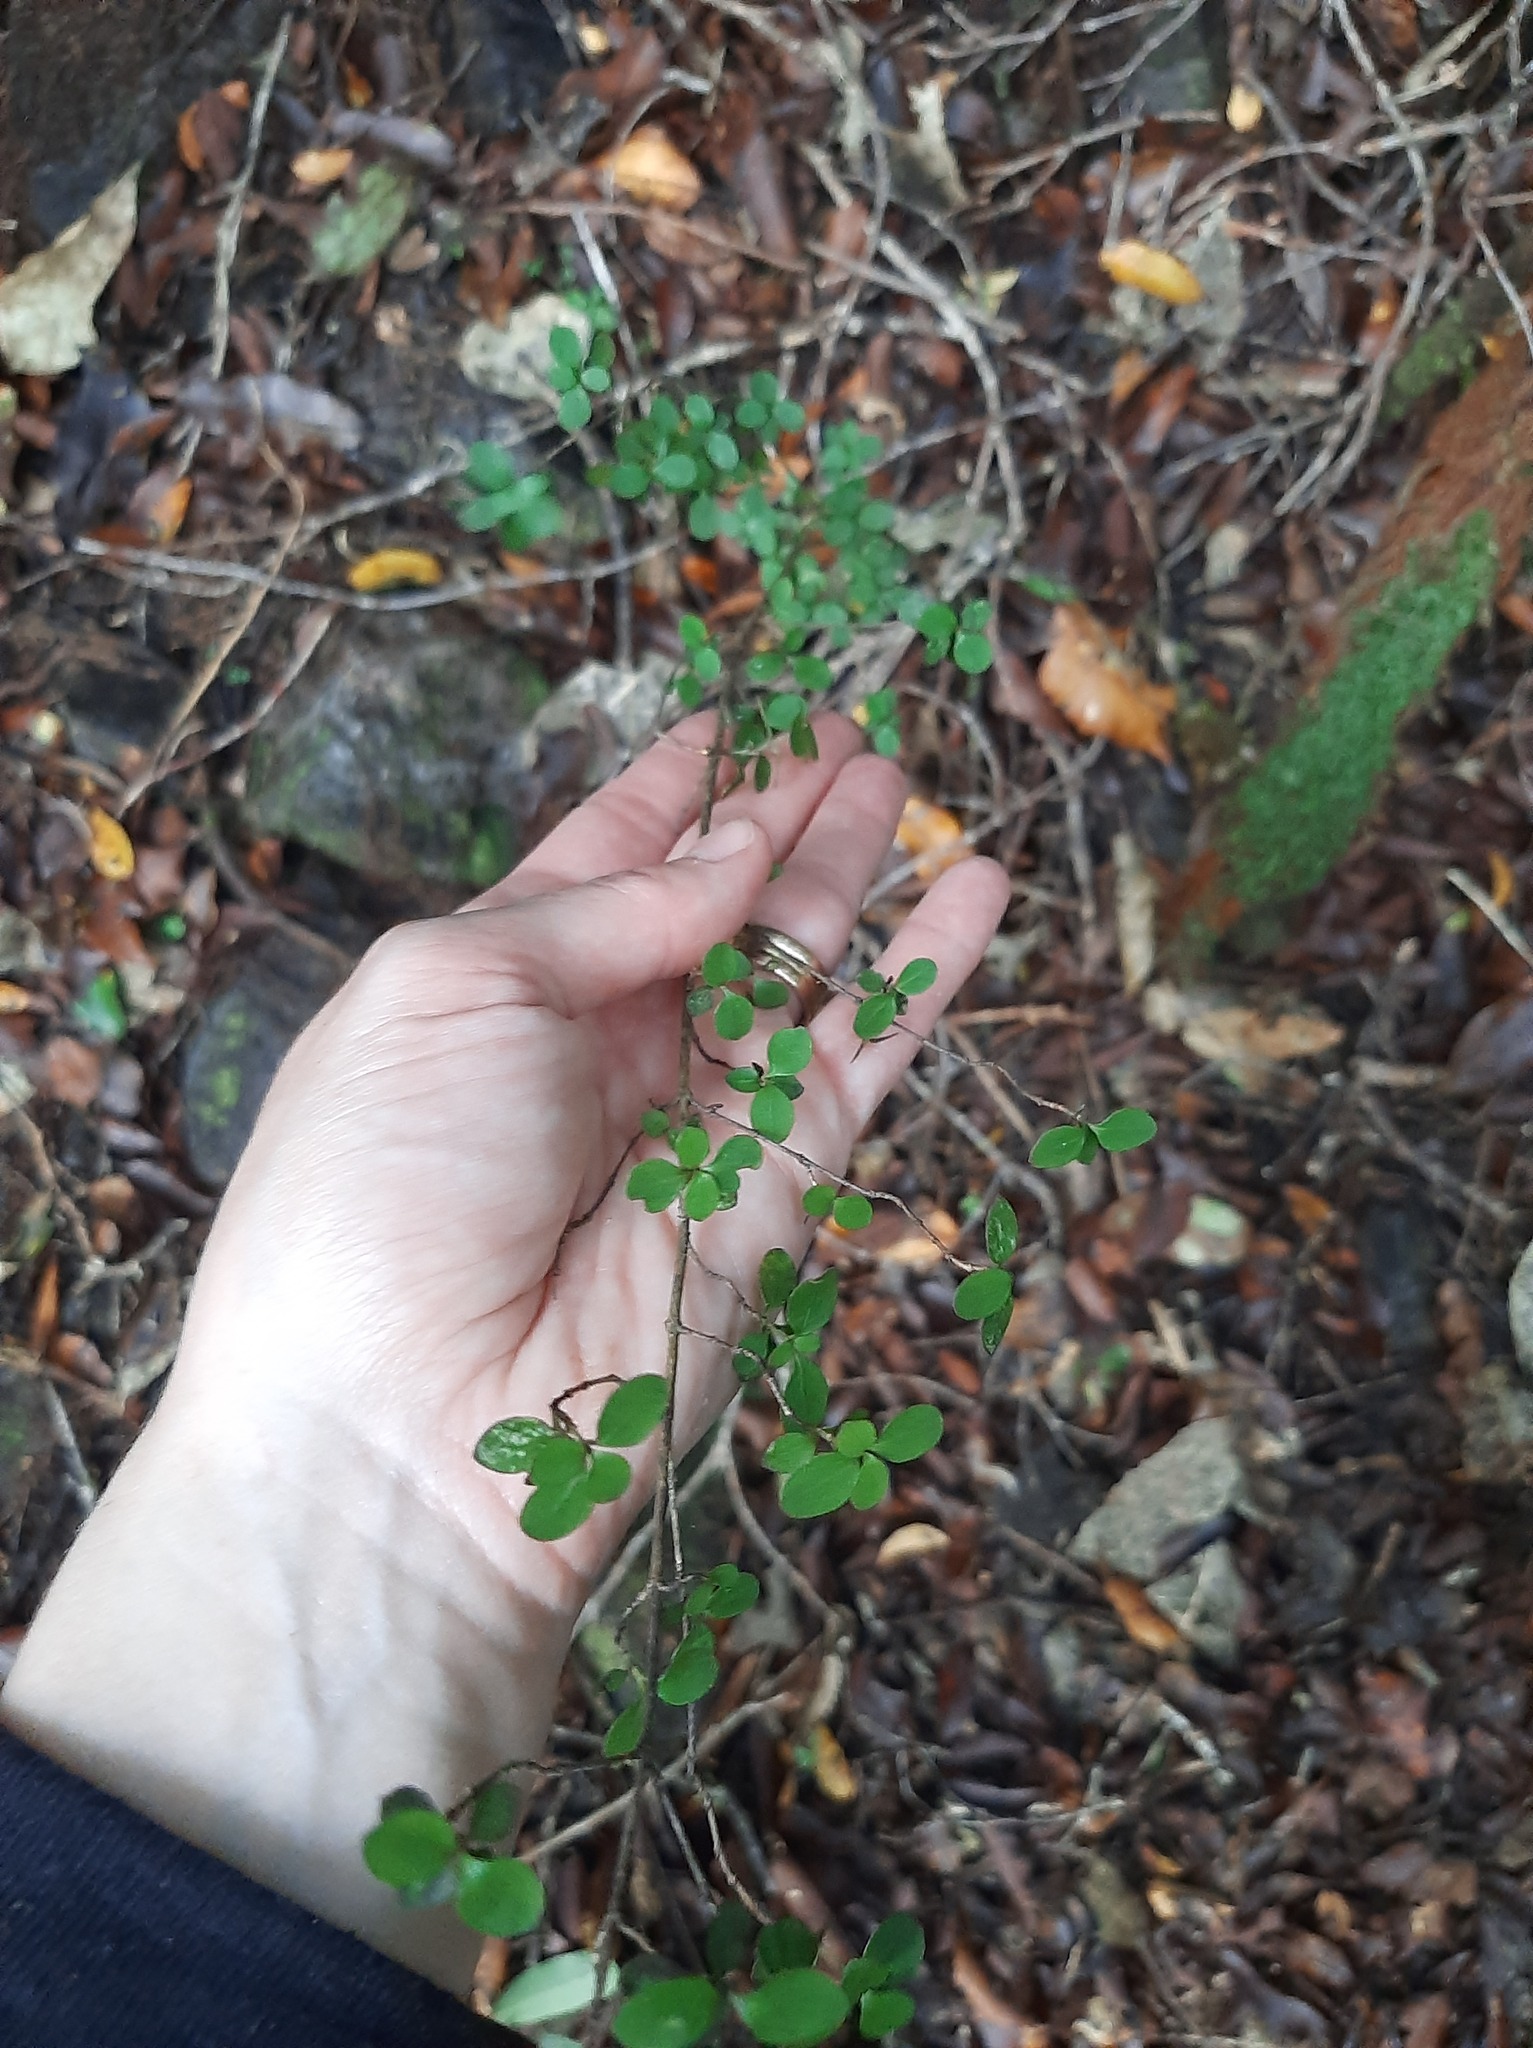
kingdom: Plantae
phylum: Tracheophyta
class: Magnoliopsida
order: Gentianales
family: Rubiaceae
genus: Coprosma
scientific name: Coprosma rhamnoides
